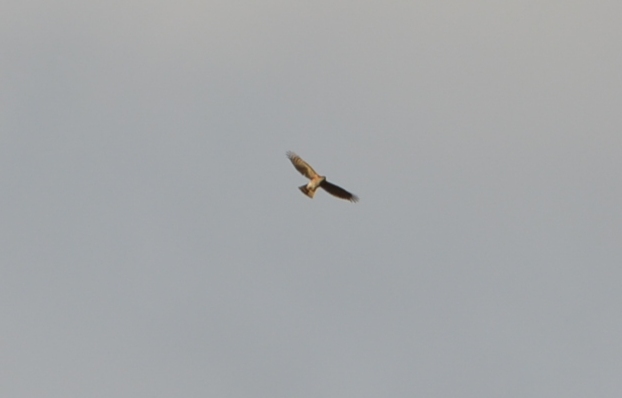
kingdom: Animalia
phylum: Chordata
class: Aves
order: Accipitriformes
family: Accipitridae
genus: Accipiter
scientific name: Accipiter cooperii
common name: Cooper's hawk
